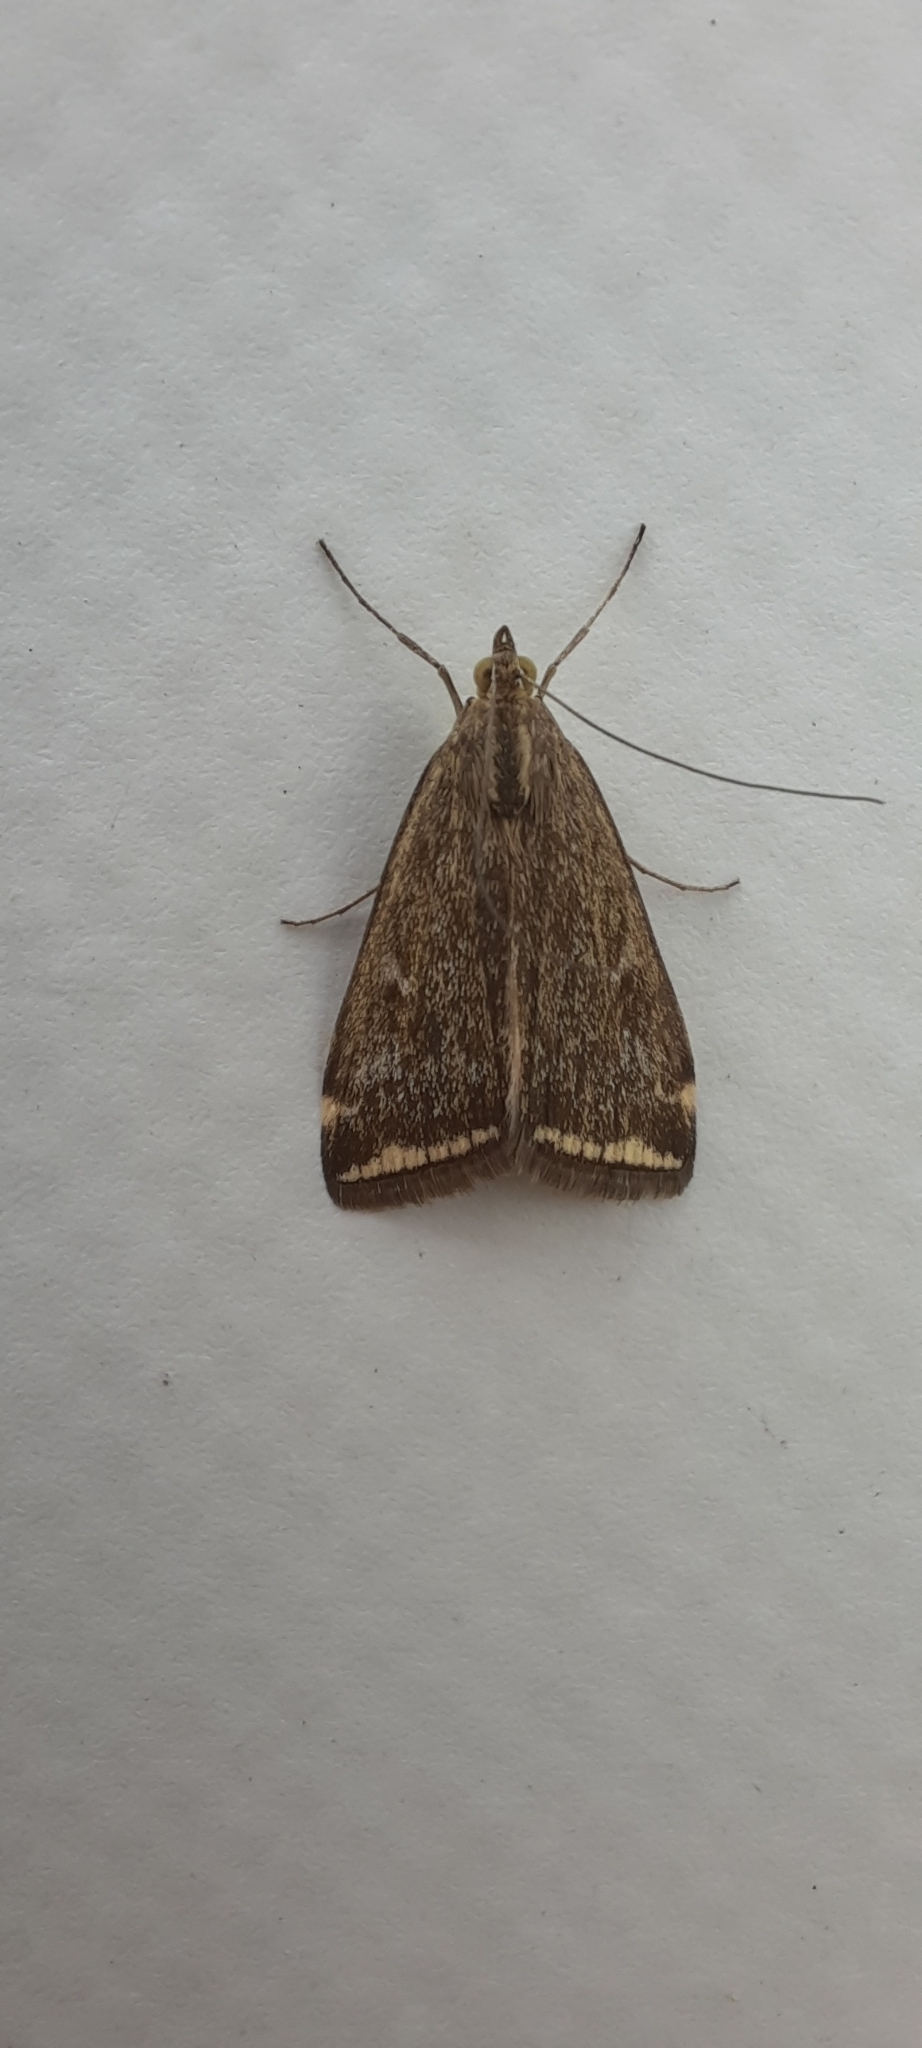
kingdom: Animalia
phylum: Arthropoda
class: Insecta
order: Lepidoptera
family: Crambidae
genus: Loxostege
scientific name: Loxostege sticticalis
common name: Crambid moth
